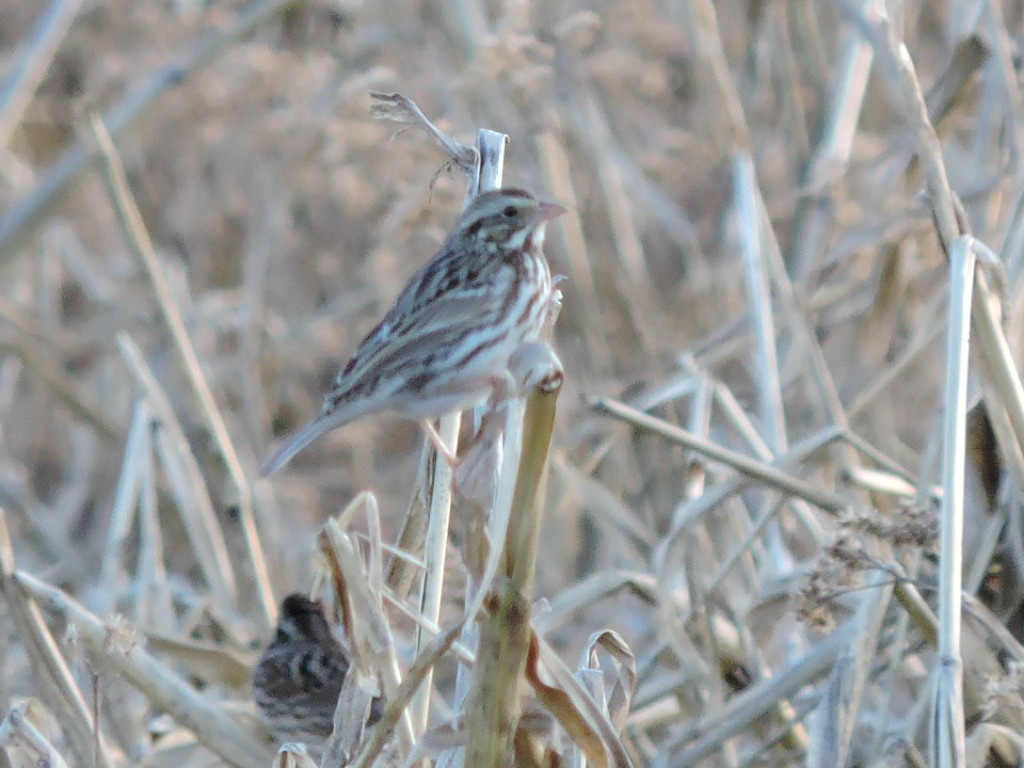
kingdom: Animalia
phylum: Chordata
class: Aves
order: Passeriformes
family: Passerellidae
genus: Passerculus
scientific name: Passerculus sandwichensis
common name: Savannah sparrow
